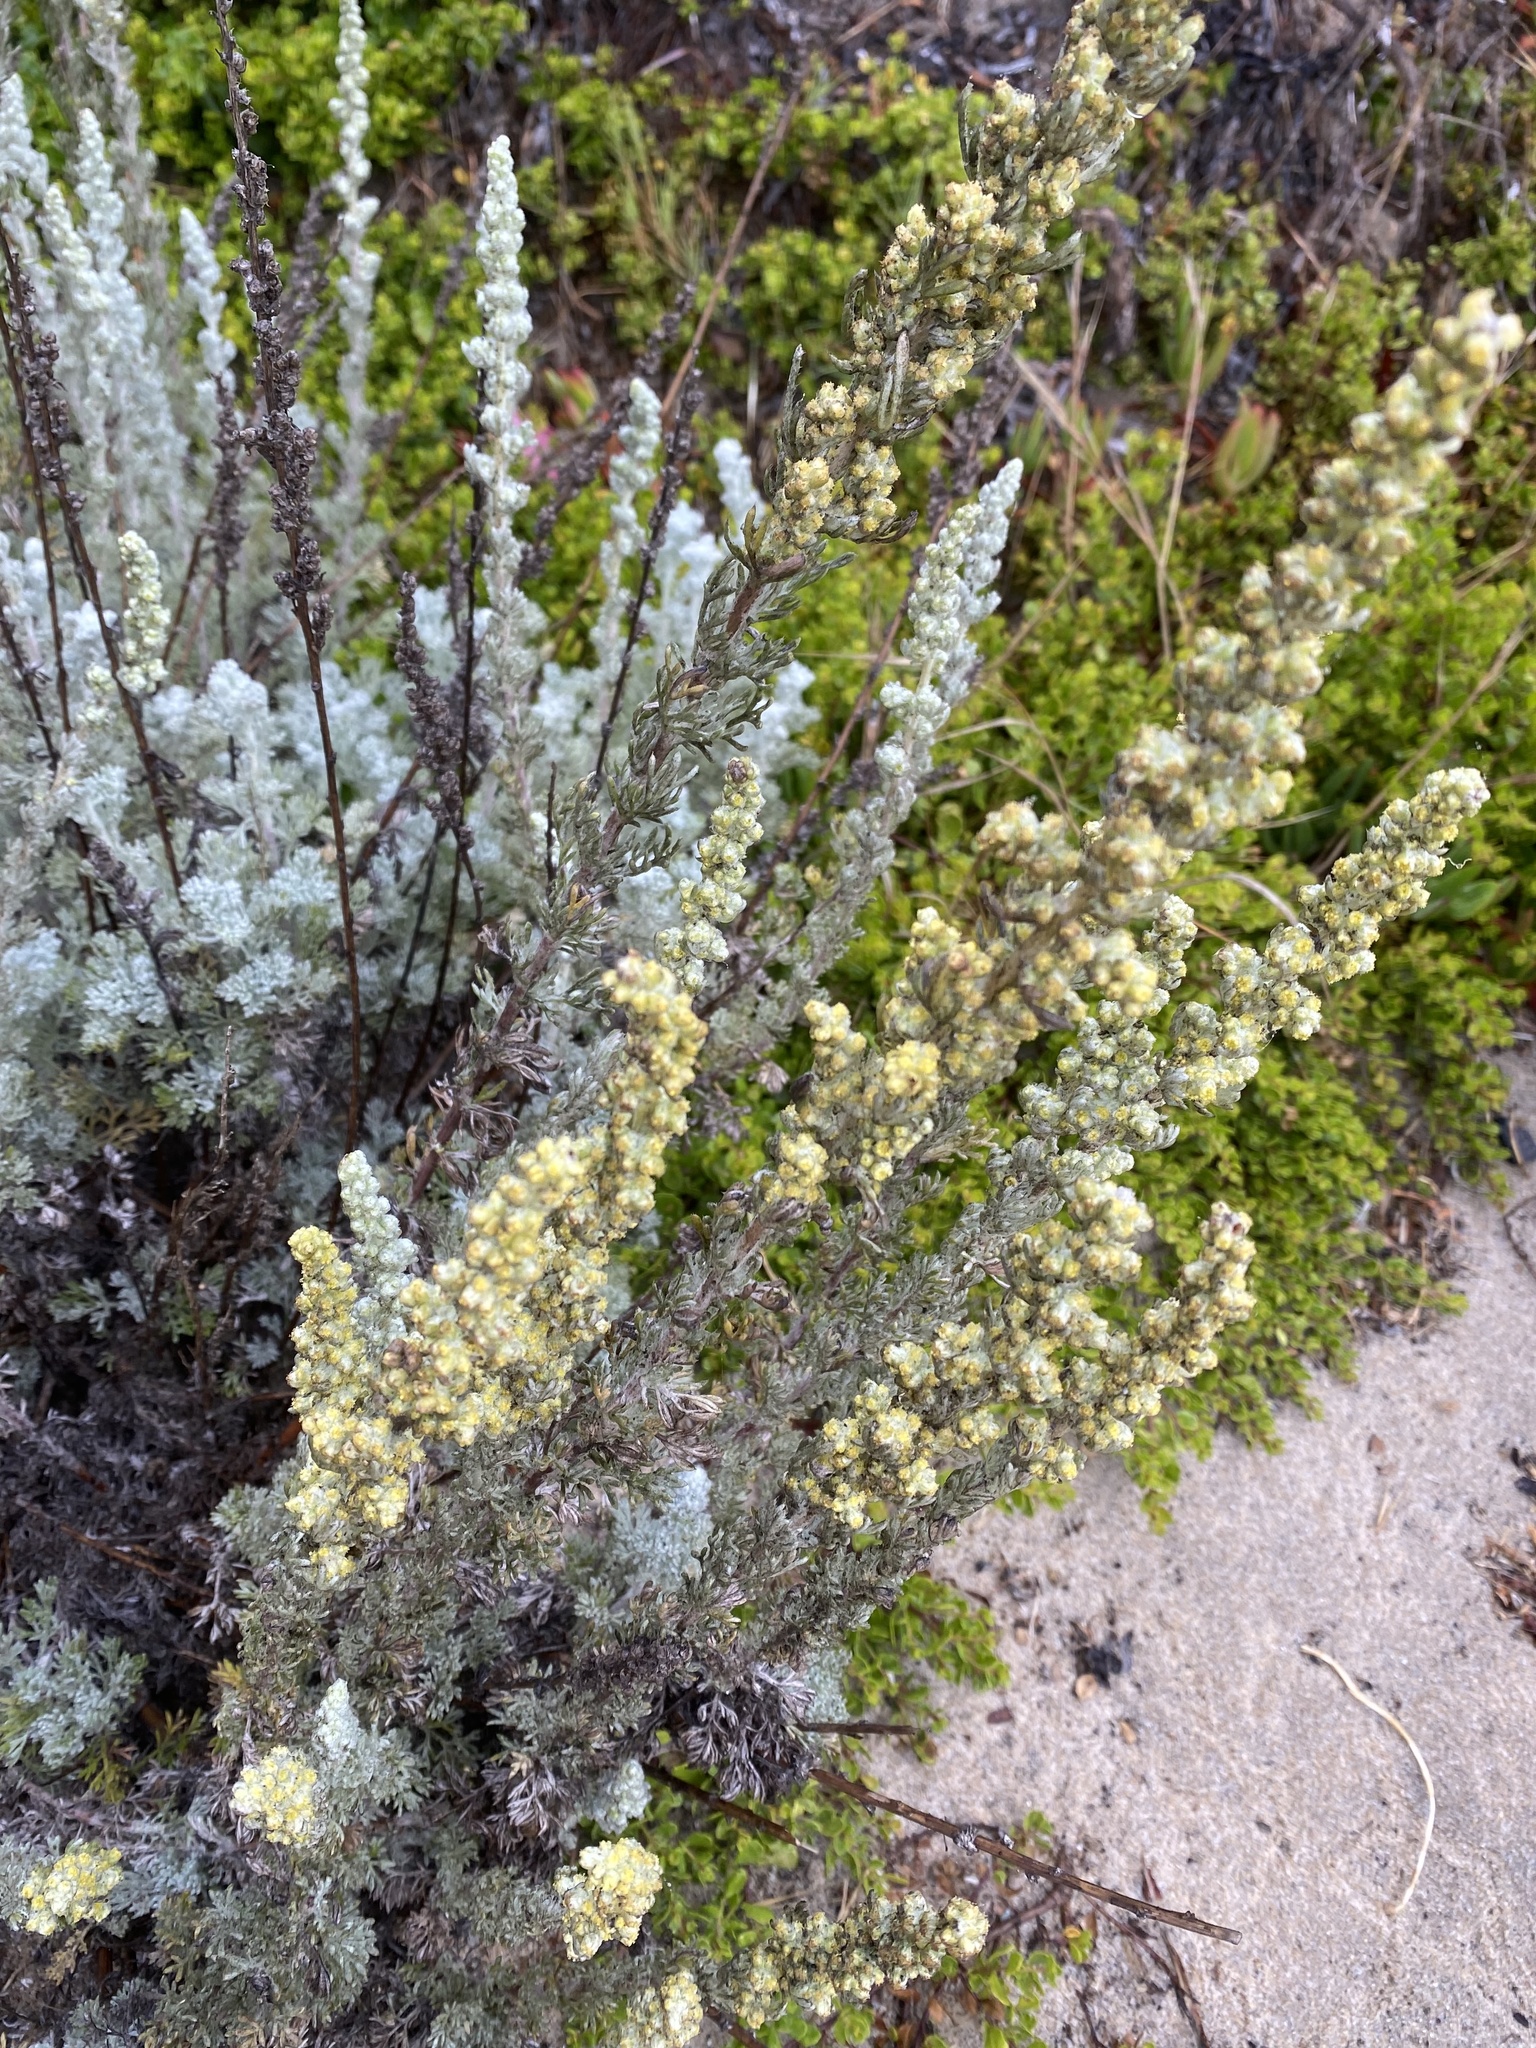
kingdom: Plantae
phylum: Tracheophyta
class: Magnoliopsida
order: Asterales
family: Asteraceae
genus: Artemisia
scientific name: Artemisia pycnocephala
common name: Coastal sagewort
